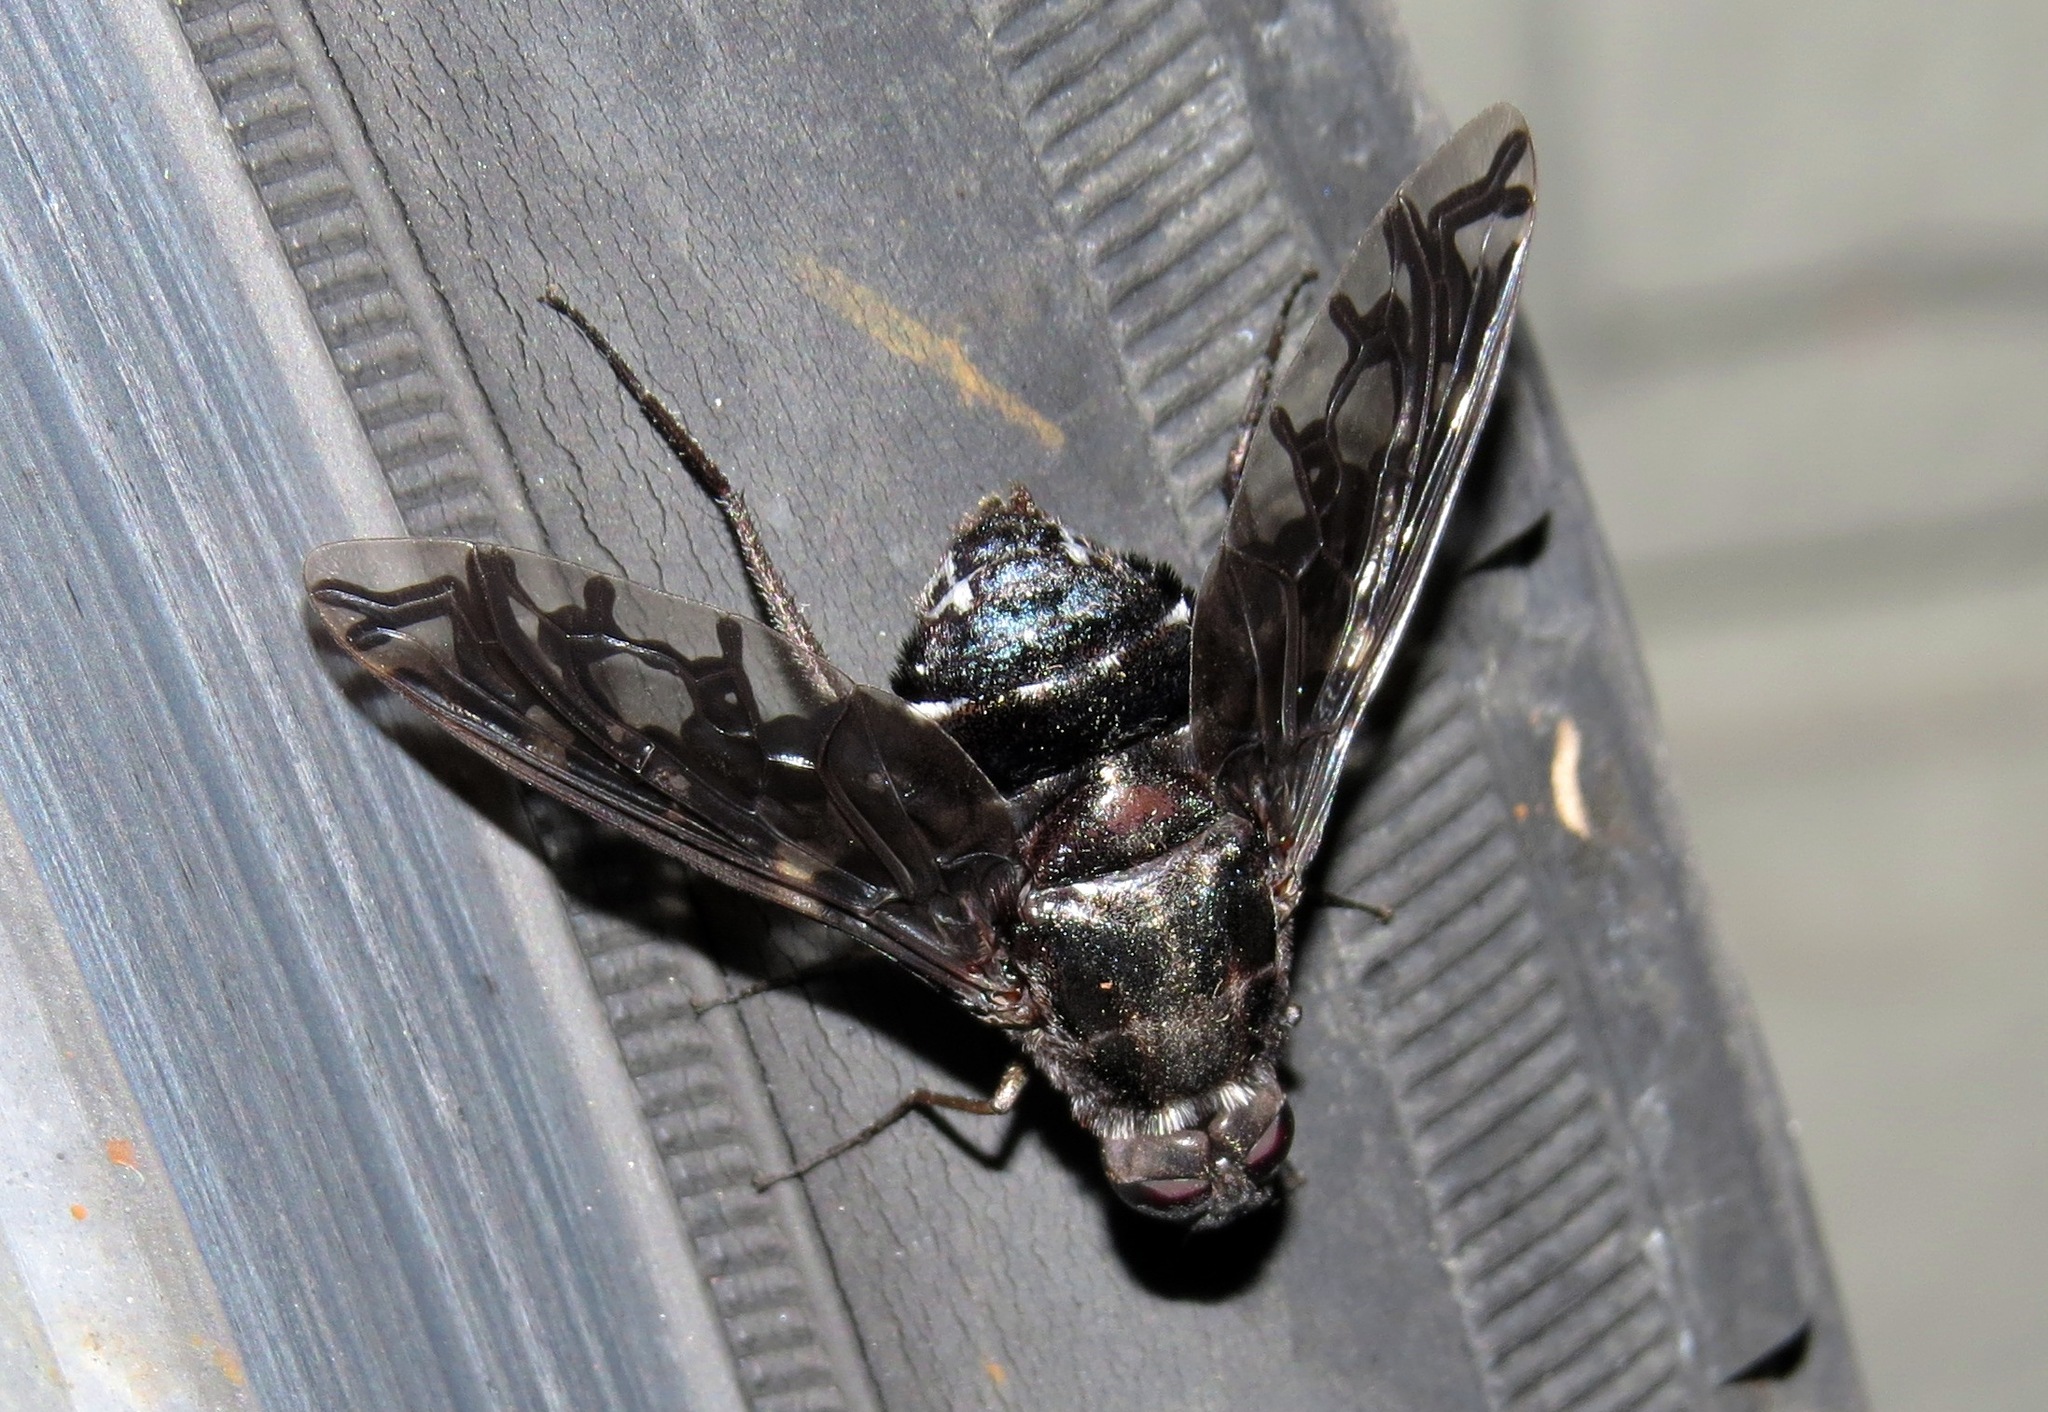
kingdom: Animalia
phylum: Arthropoda
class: Insecta
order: Diptera
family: Bombyliidae
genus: Xenox
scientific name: Xenox tigrinus
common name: Tiger bee fly
